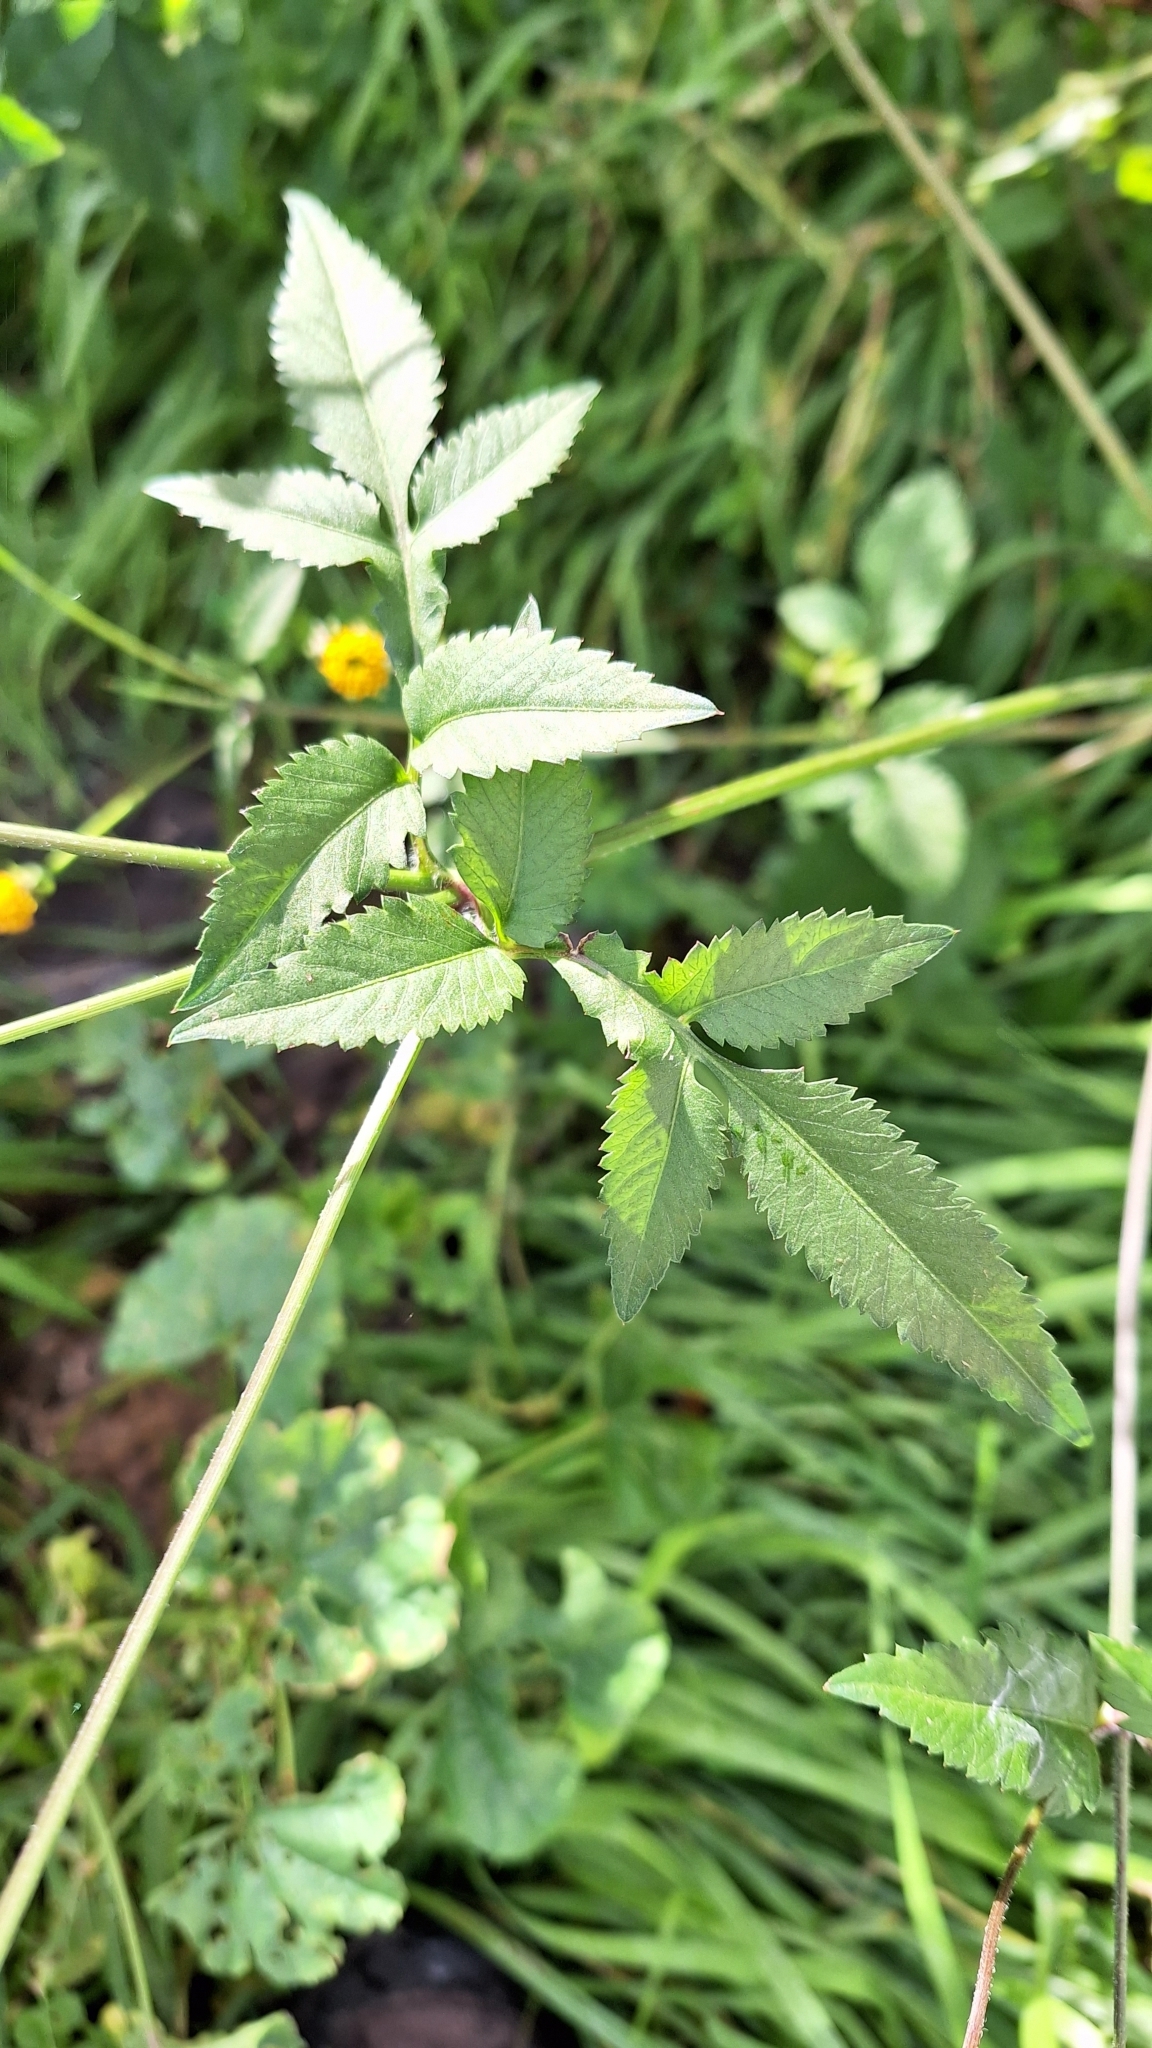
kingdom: Plantae
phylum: Tracheophyta
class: Magnoliopsida
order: Asterales
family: Asteraceae
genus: Bidens
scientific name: Bidens pilosa
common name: Black-jack
